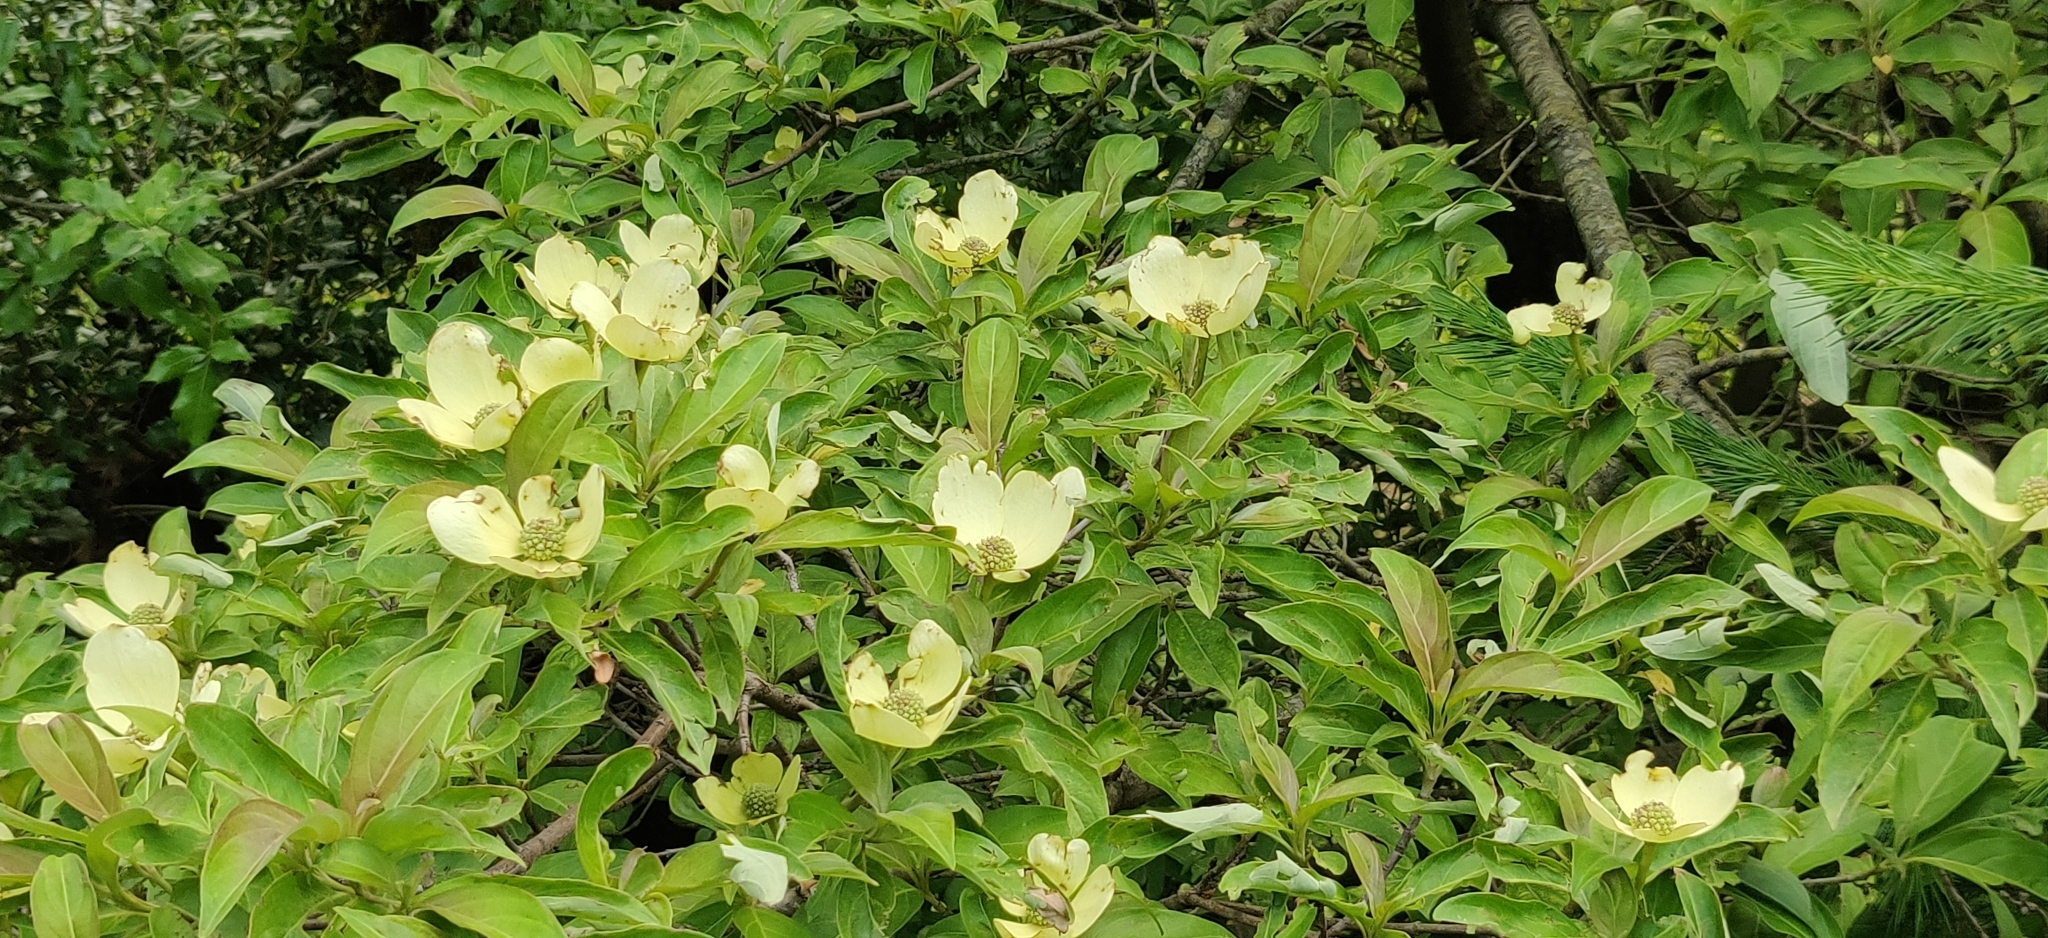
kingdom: Plantae
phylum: Tracheophyta
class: Magnoliopsida
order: Cornales
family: Cornaceae
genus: Cornus
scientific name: Cornus capitata
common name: Bentham's cornel
